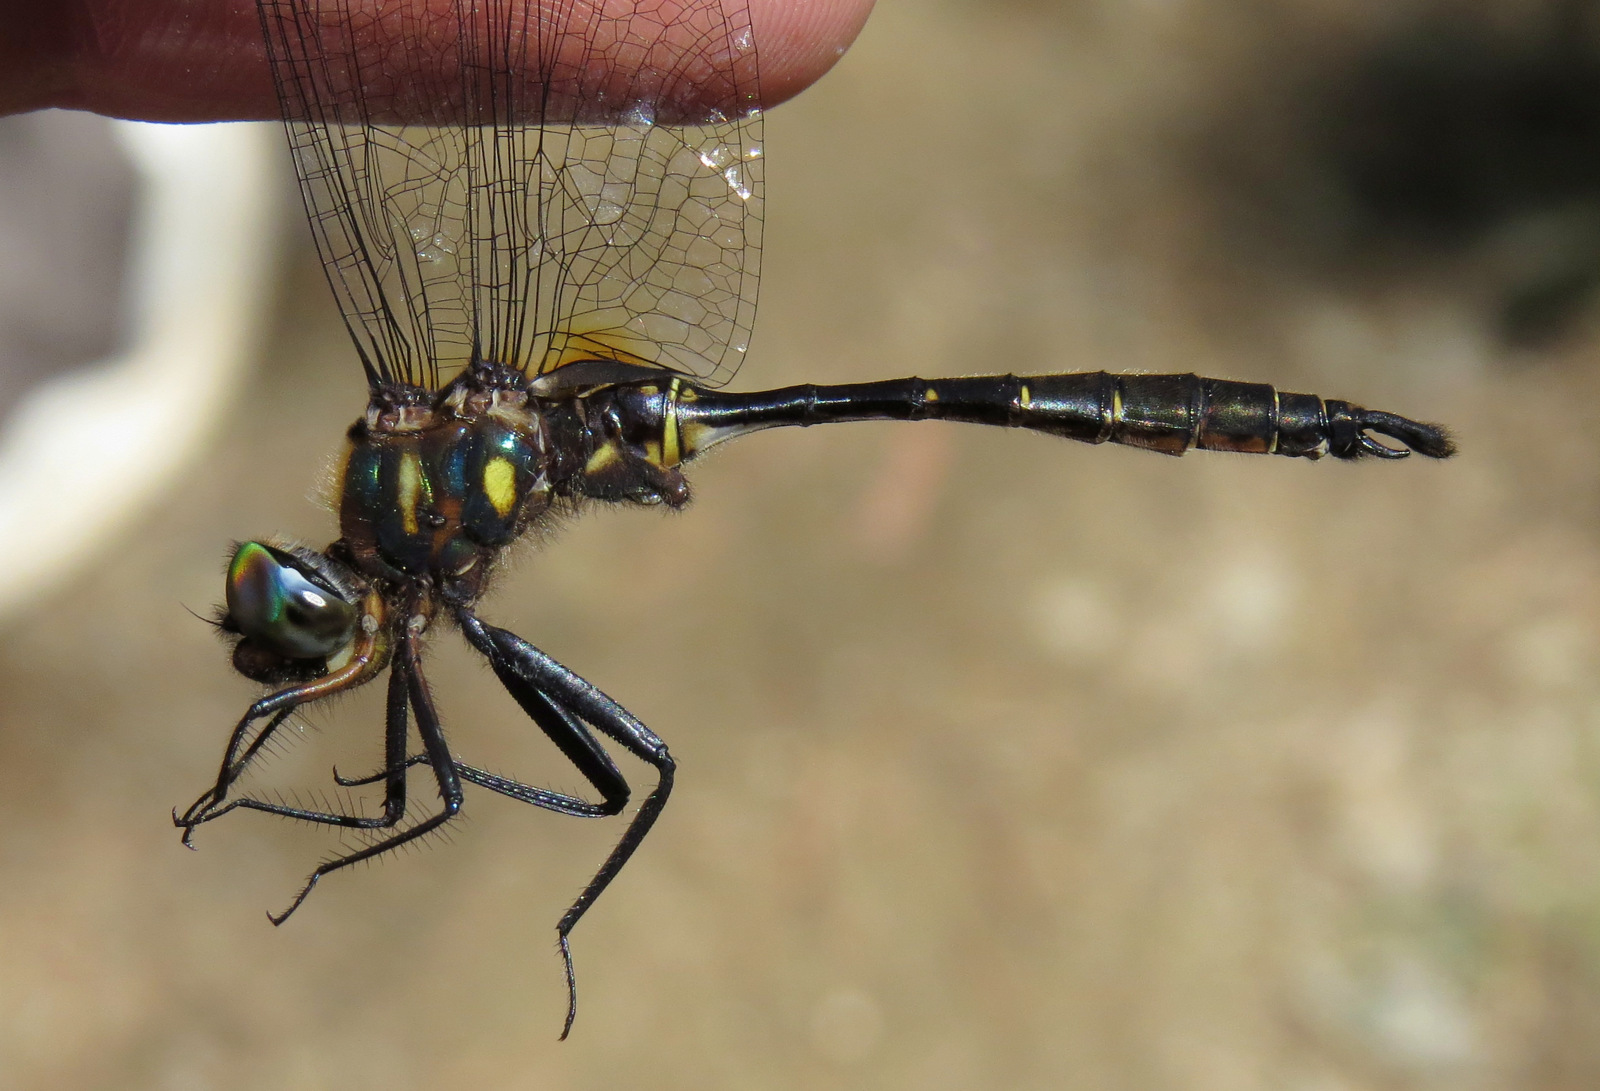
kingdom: Animalia
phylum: Arthropoda
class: Insecta
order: Odonata
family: Corduliidae
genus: Somatochlora
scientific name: Somatochlora walshii
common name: Brush-tipped emerald
